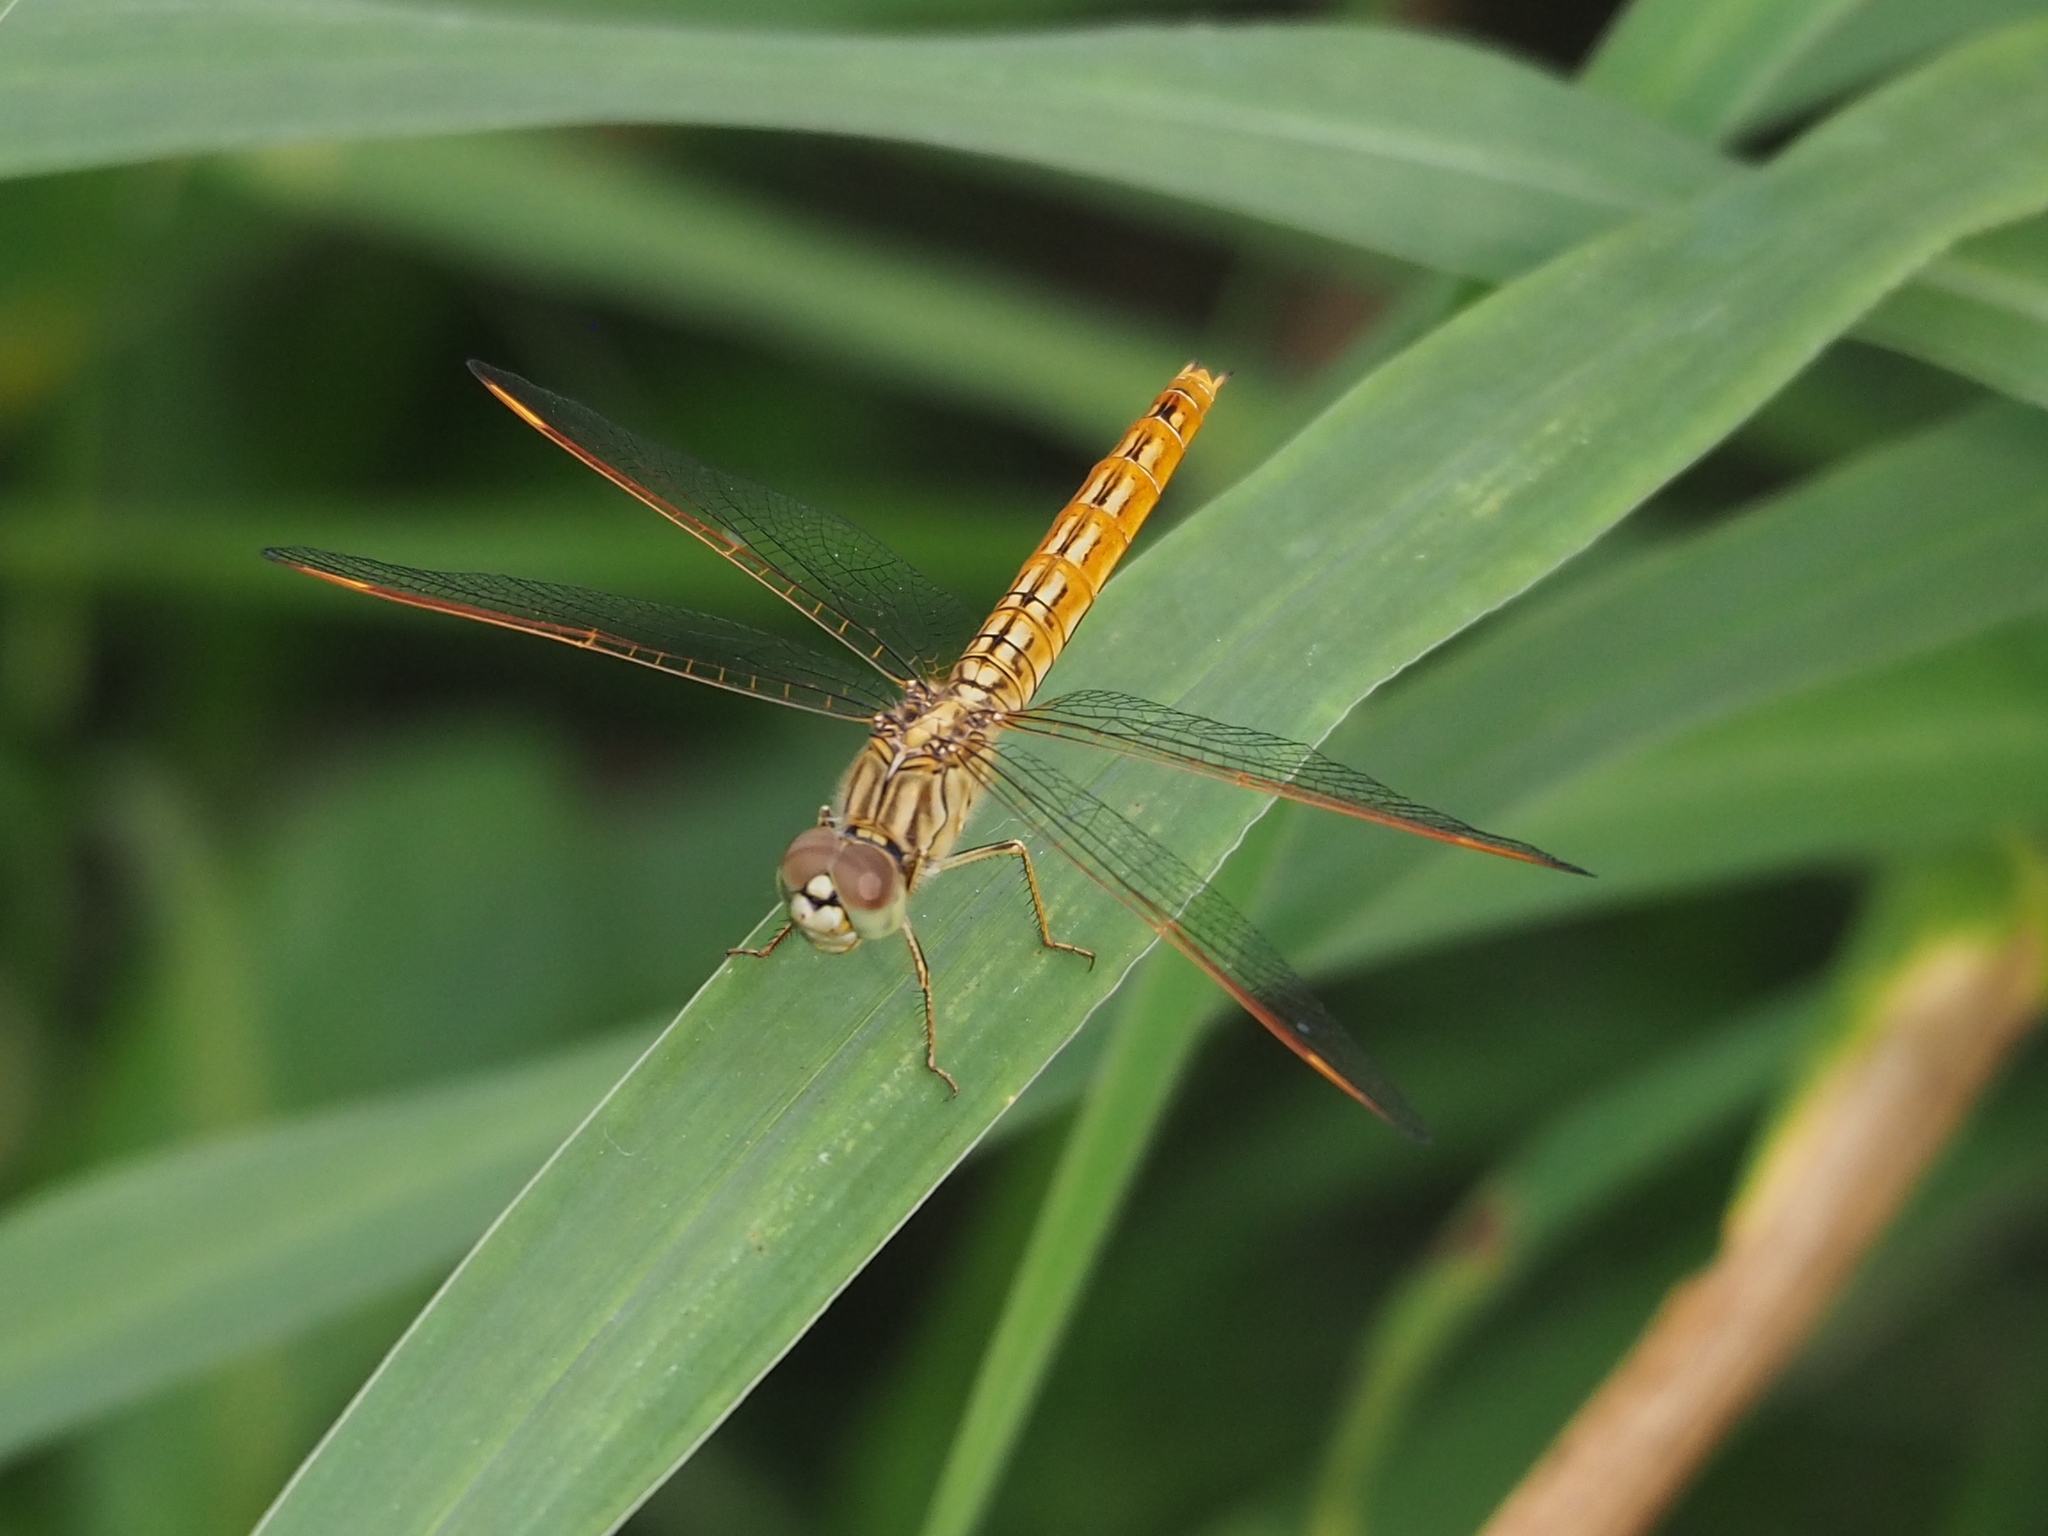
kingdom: Animalia
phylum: Arthropoda
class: Insecta
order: Odonata
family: Libellulidae
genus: Brachythemis
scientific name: Brachythemis contaminata
